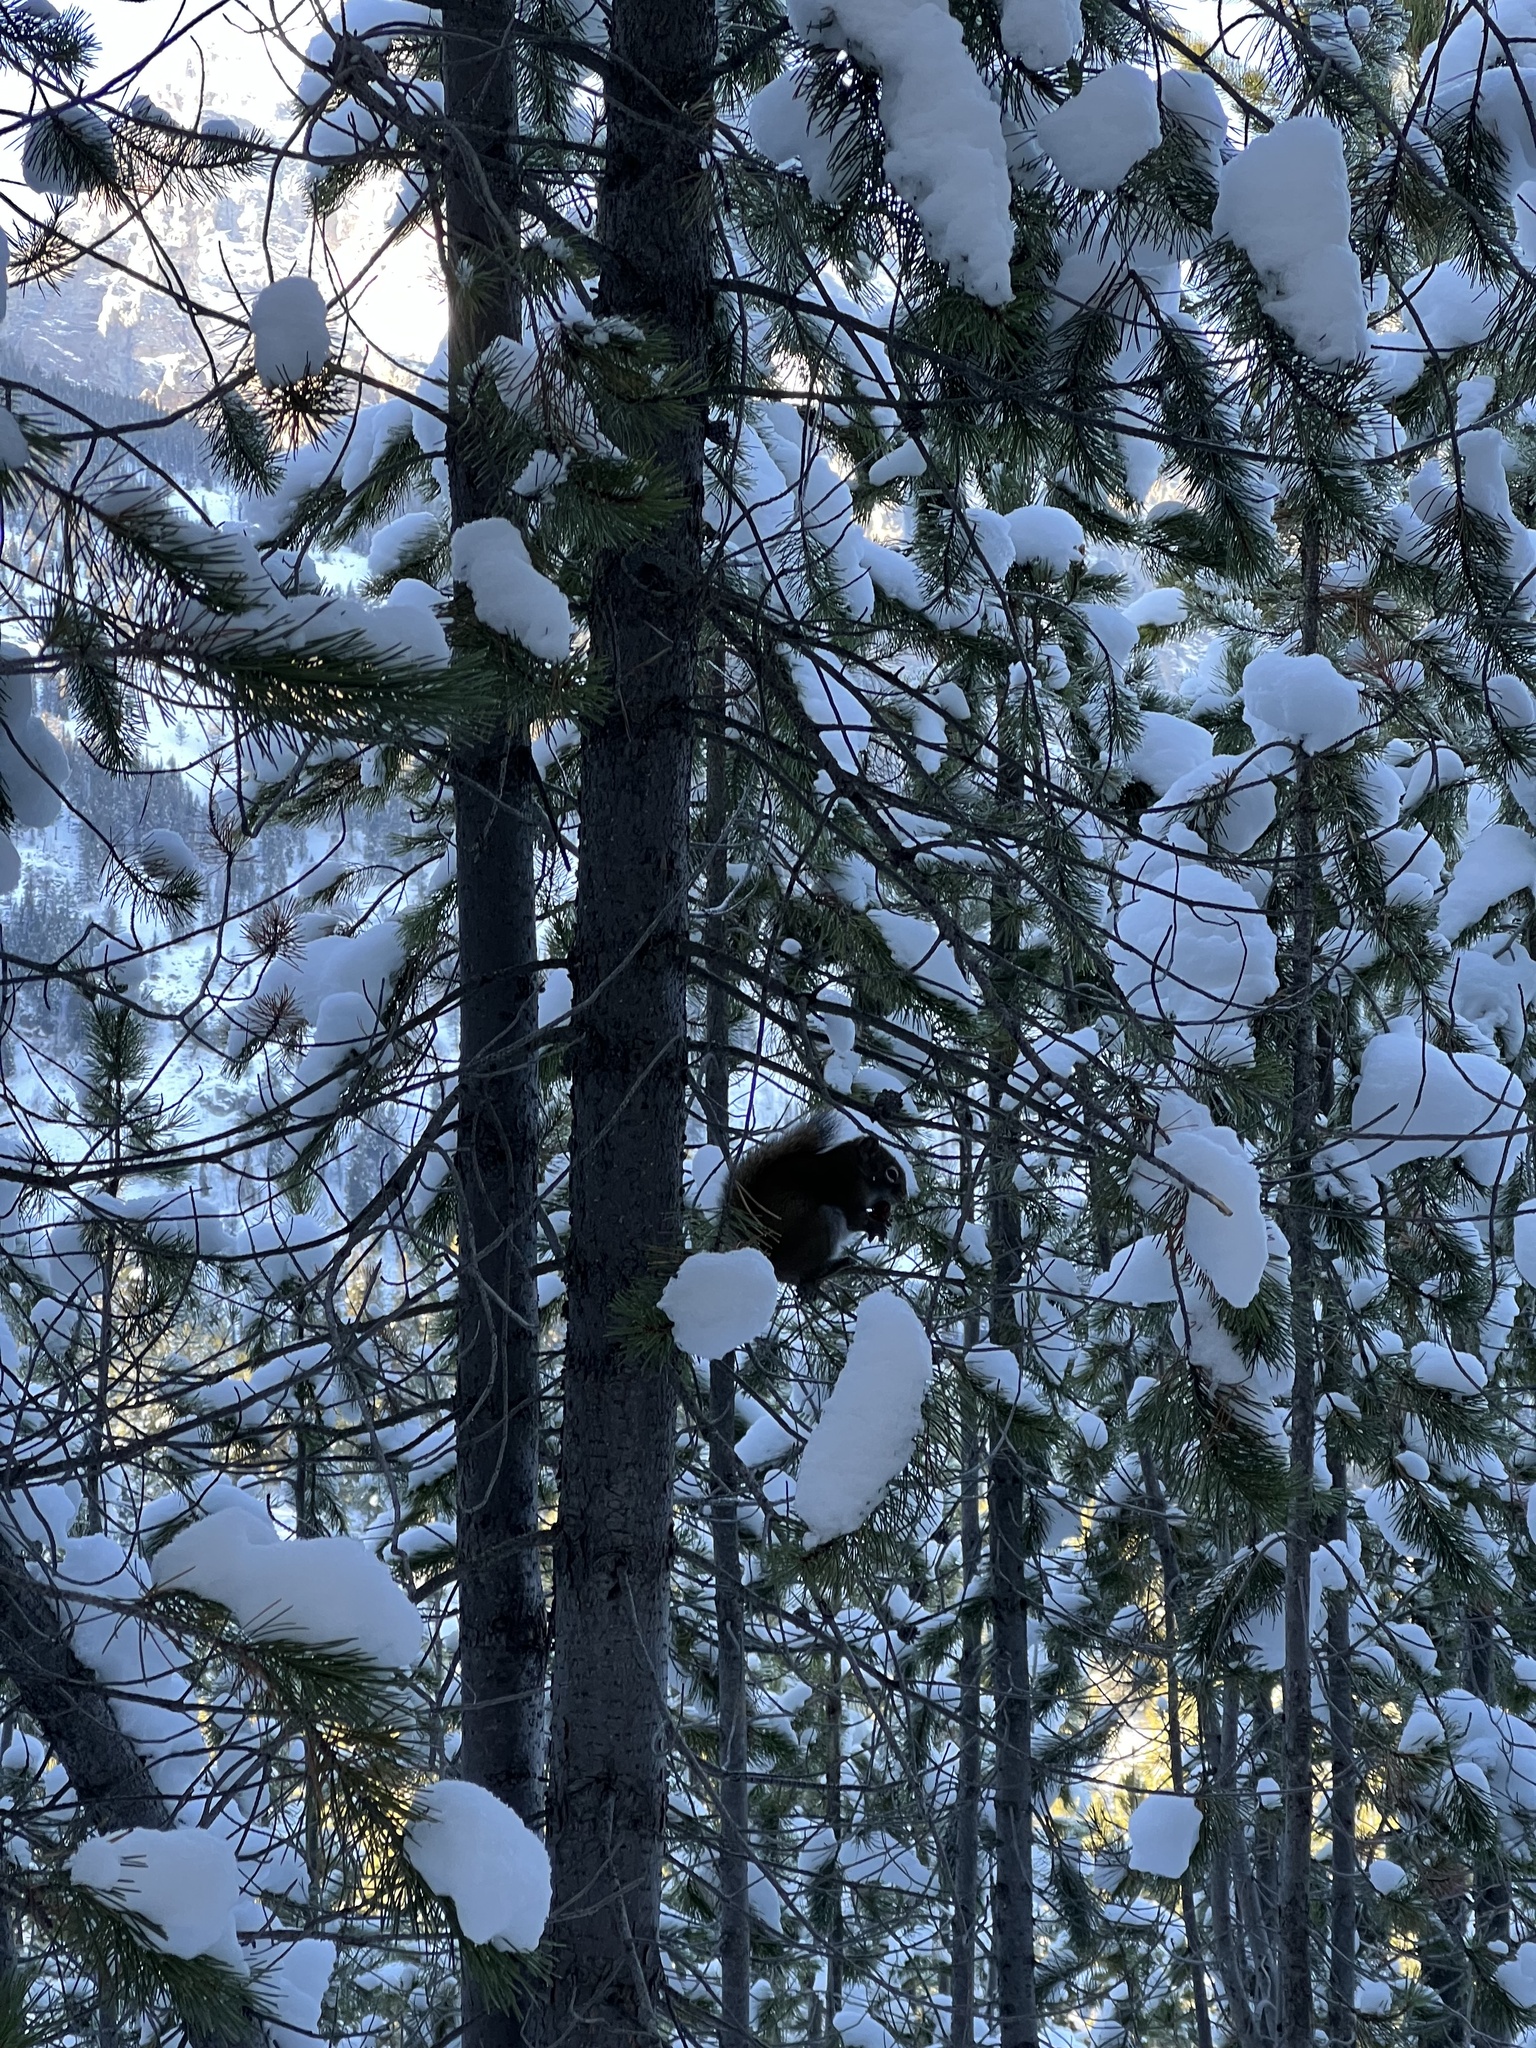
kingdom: Animalia
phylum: Chordata
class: Mammalia
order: Rodentia
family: Sciuridae
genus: Tamiasciurus
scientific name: Tamiasciurus hudsonicus
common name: Red squirrel
